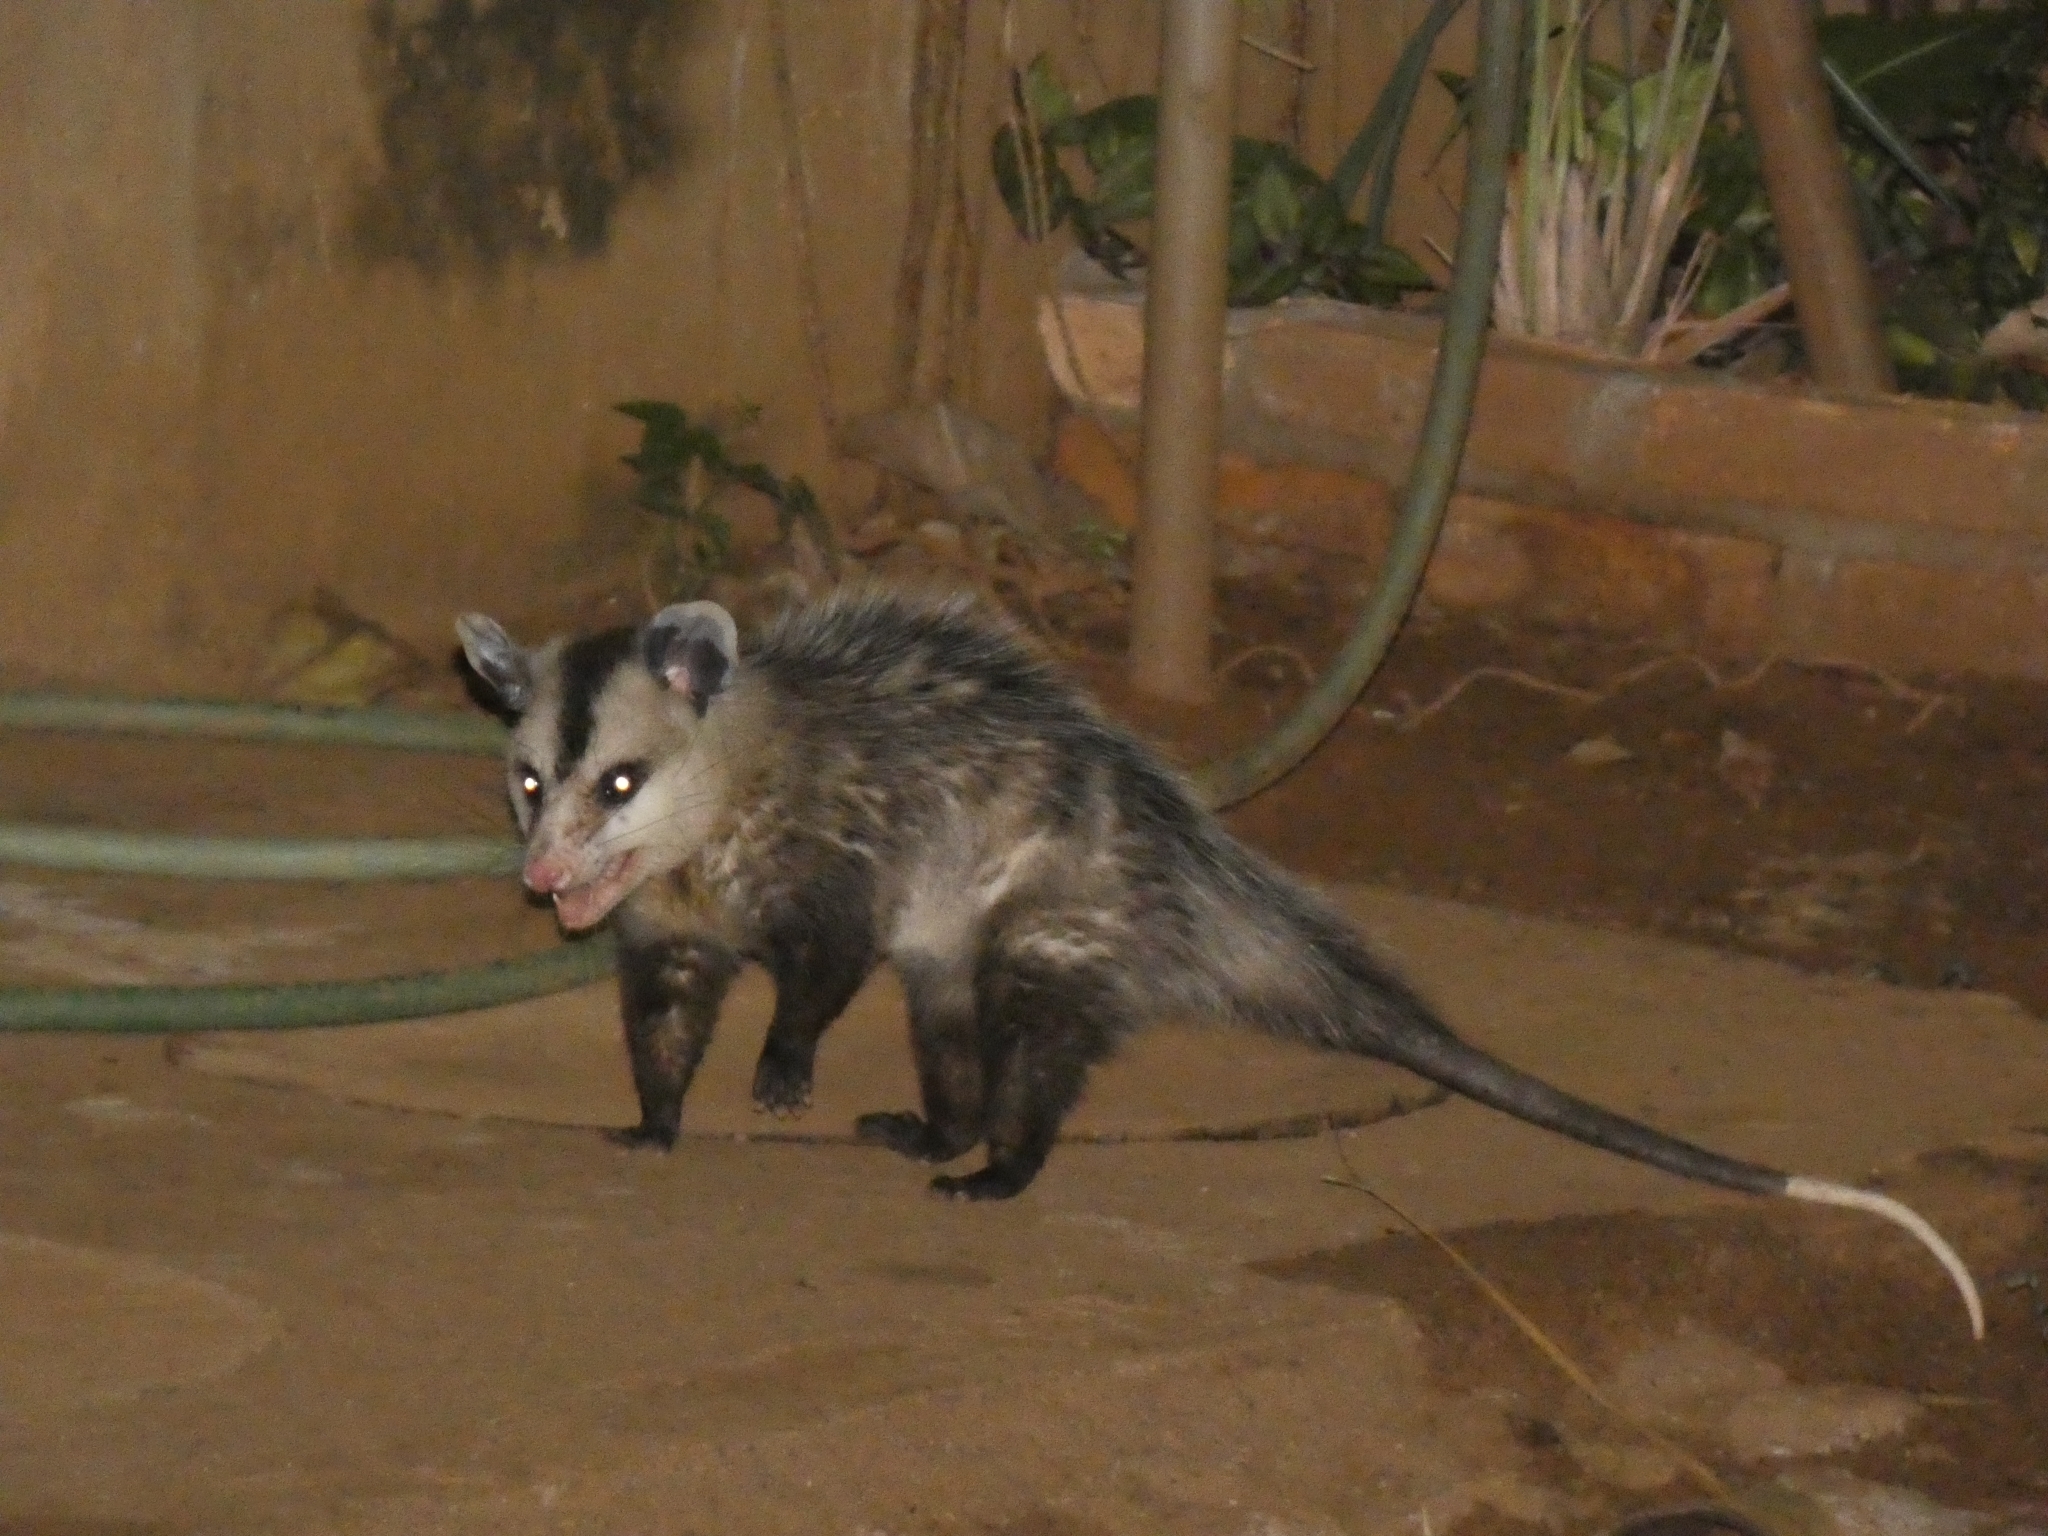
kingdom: Animalia
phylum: Chordata
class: Mammalia
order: Didelphimorphia
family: Didelphidae
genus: Didelphis
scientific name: Didelphis albiventris
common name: White-eared opossum
